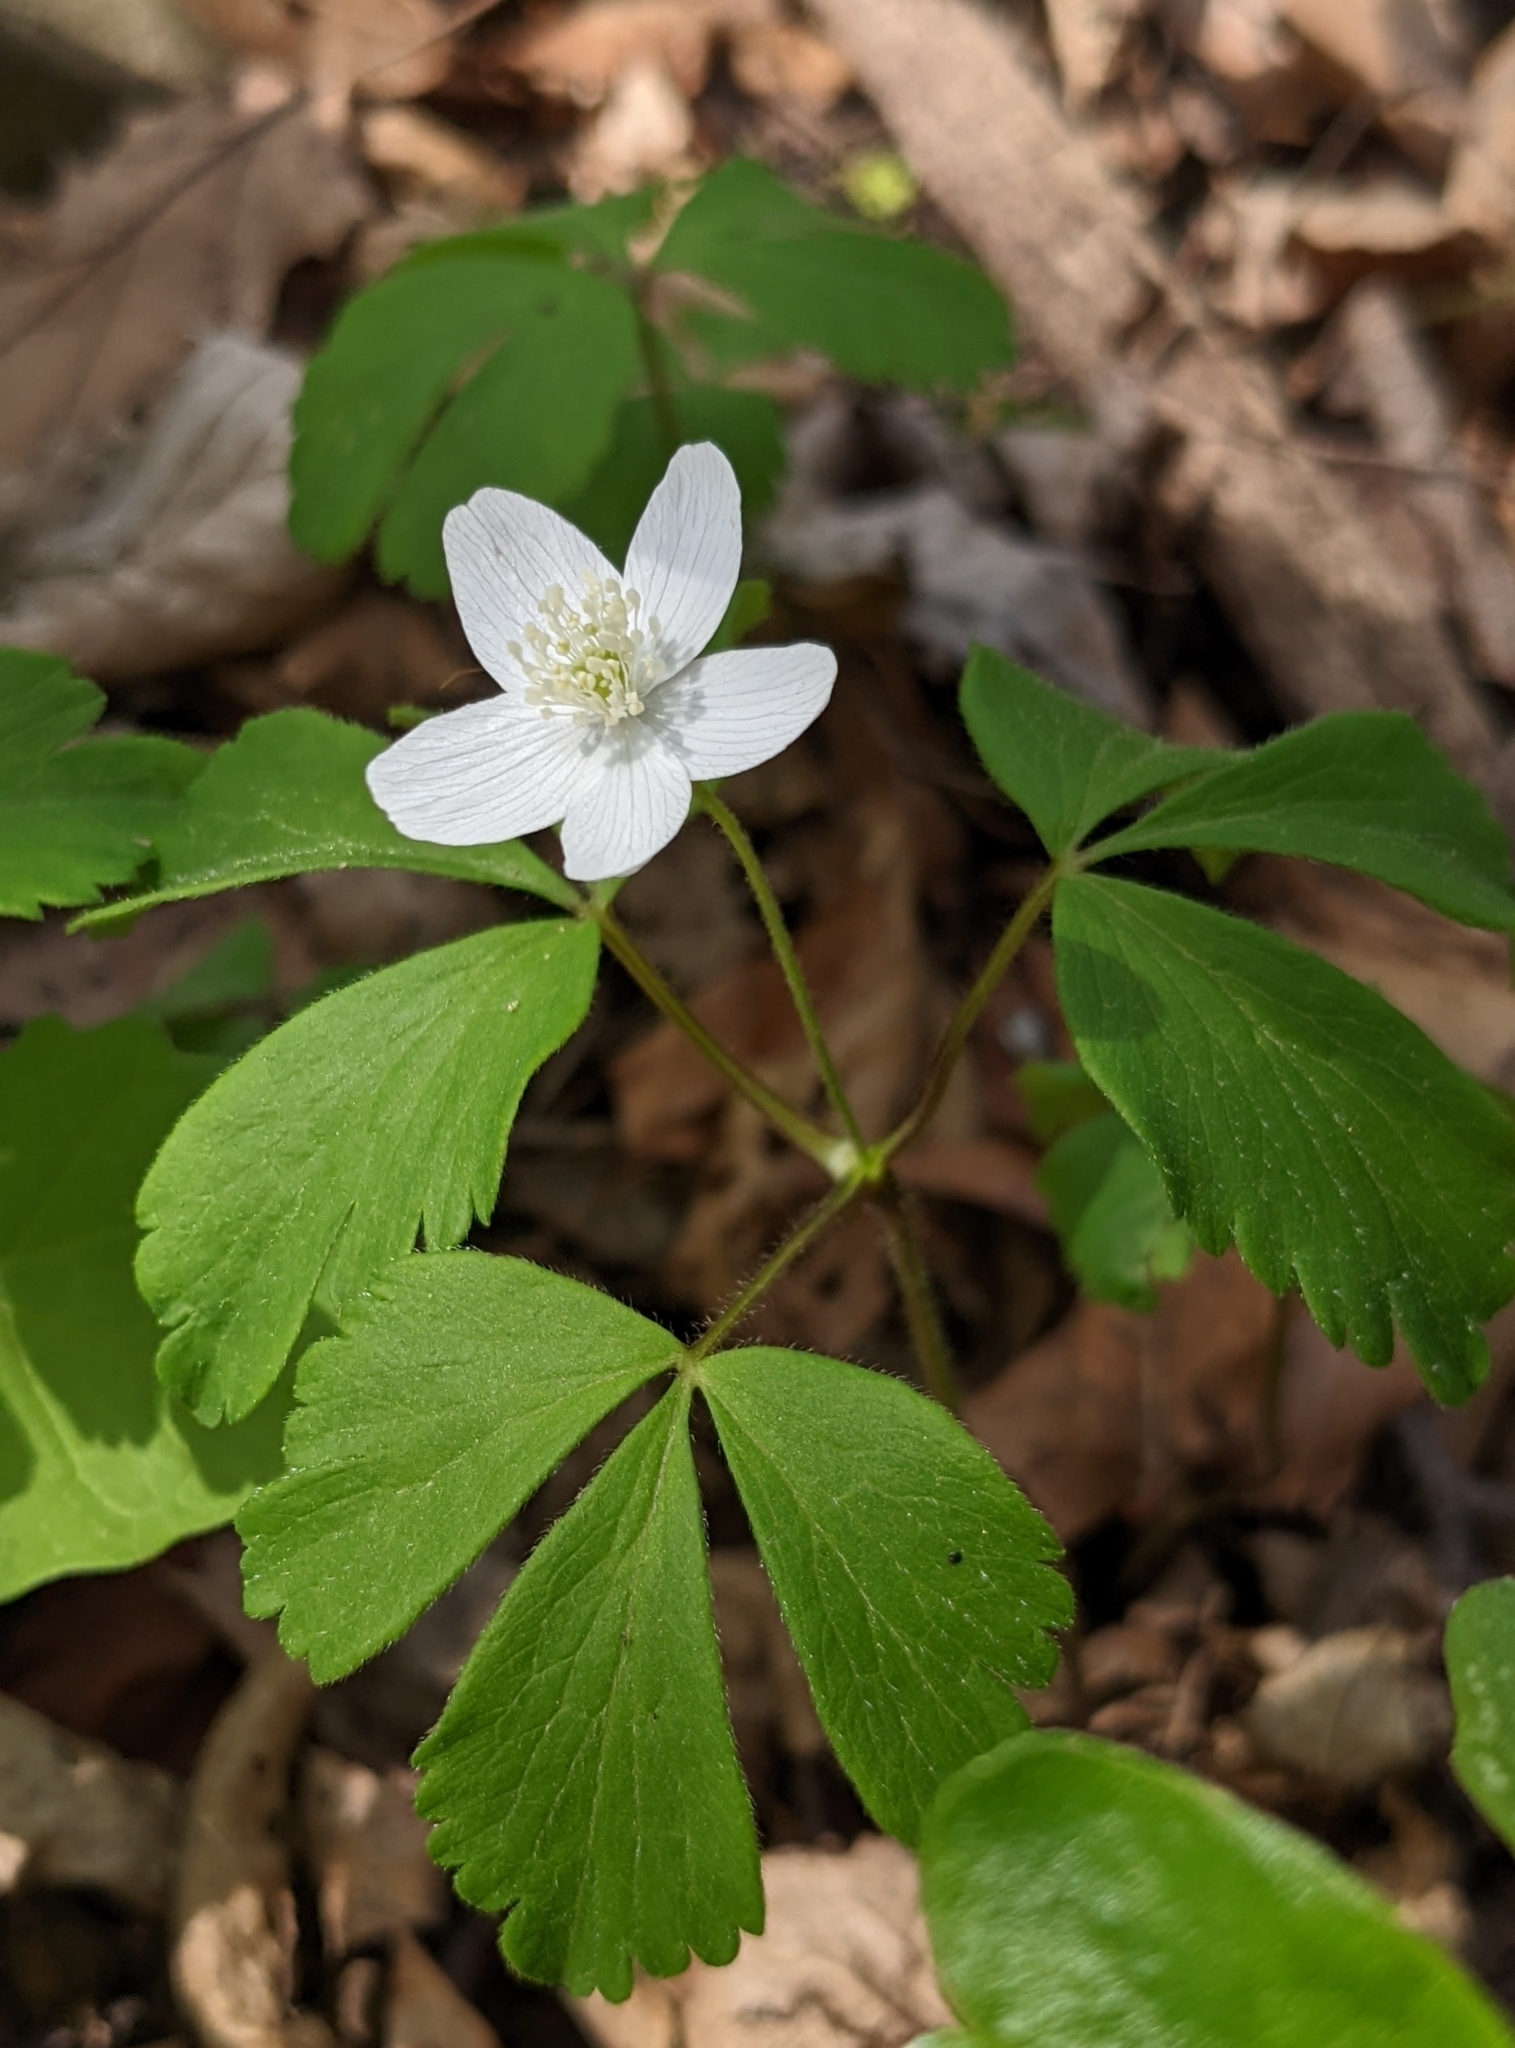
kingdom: Plantae
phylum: Tracheophyta
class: Magnoliopsida
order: Ranunculales
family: Ranunculaceae
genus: Anemone
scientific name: Anemone quinquefolia
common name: Wood anemone
